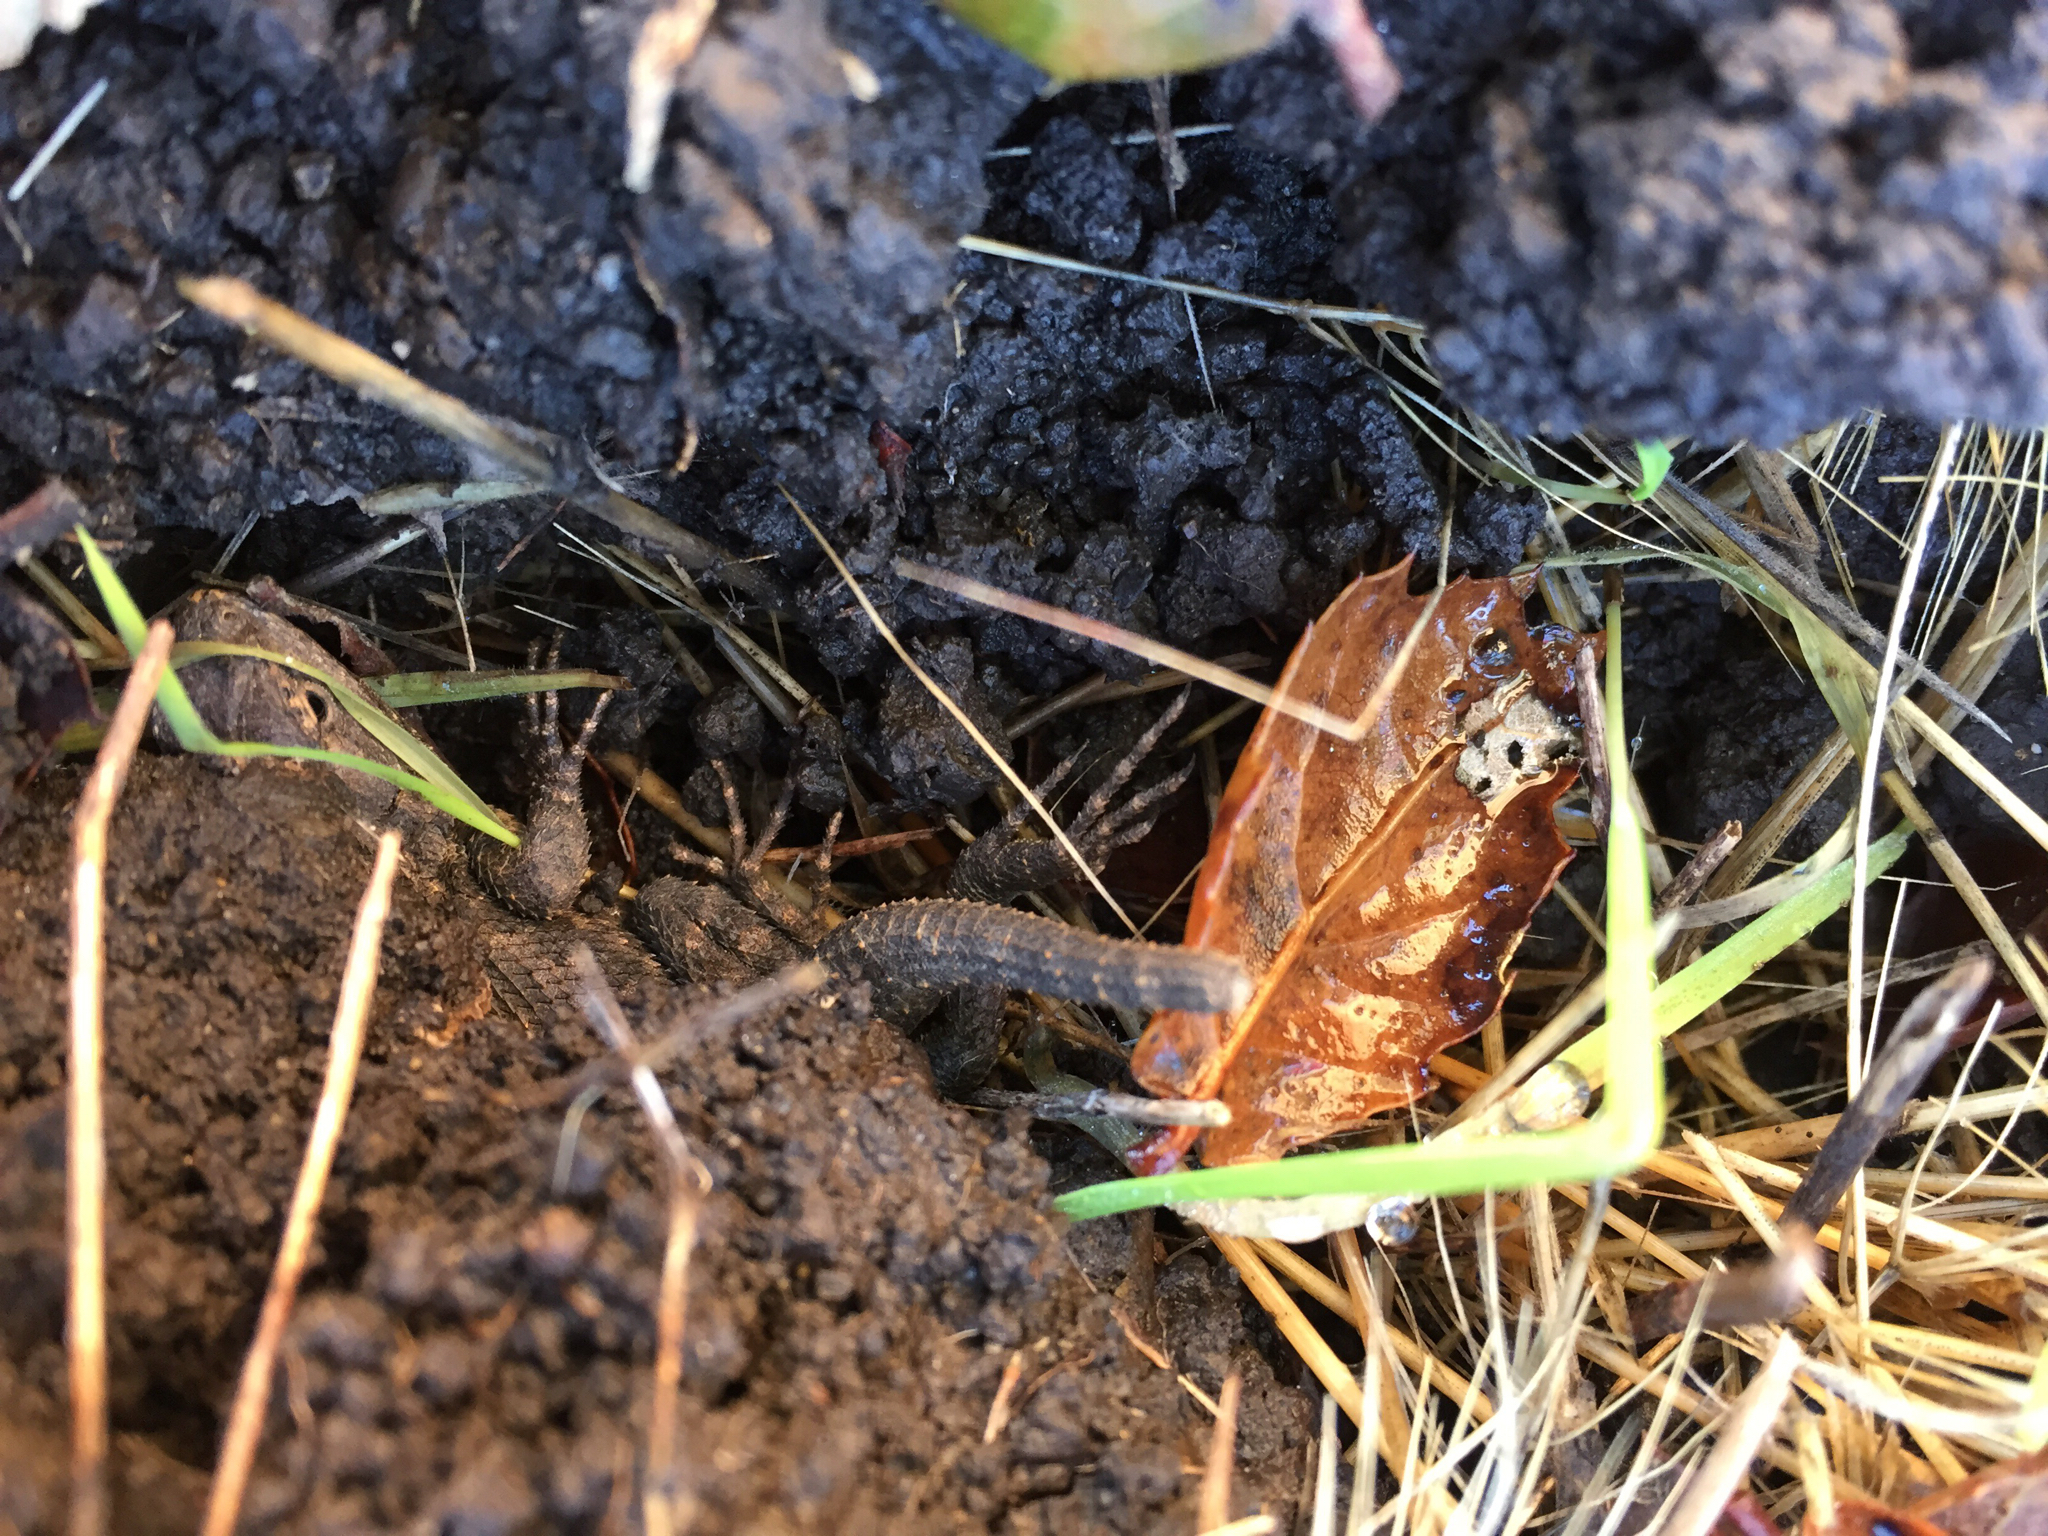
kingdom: Animalia
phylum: Chordata
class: Squamata
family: Phrynosomatidae
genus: Sceloporus
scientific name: Sceloporus occidentalis
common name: Western fence lizard
